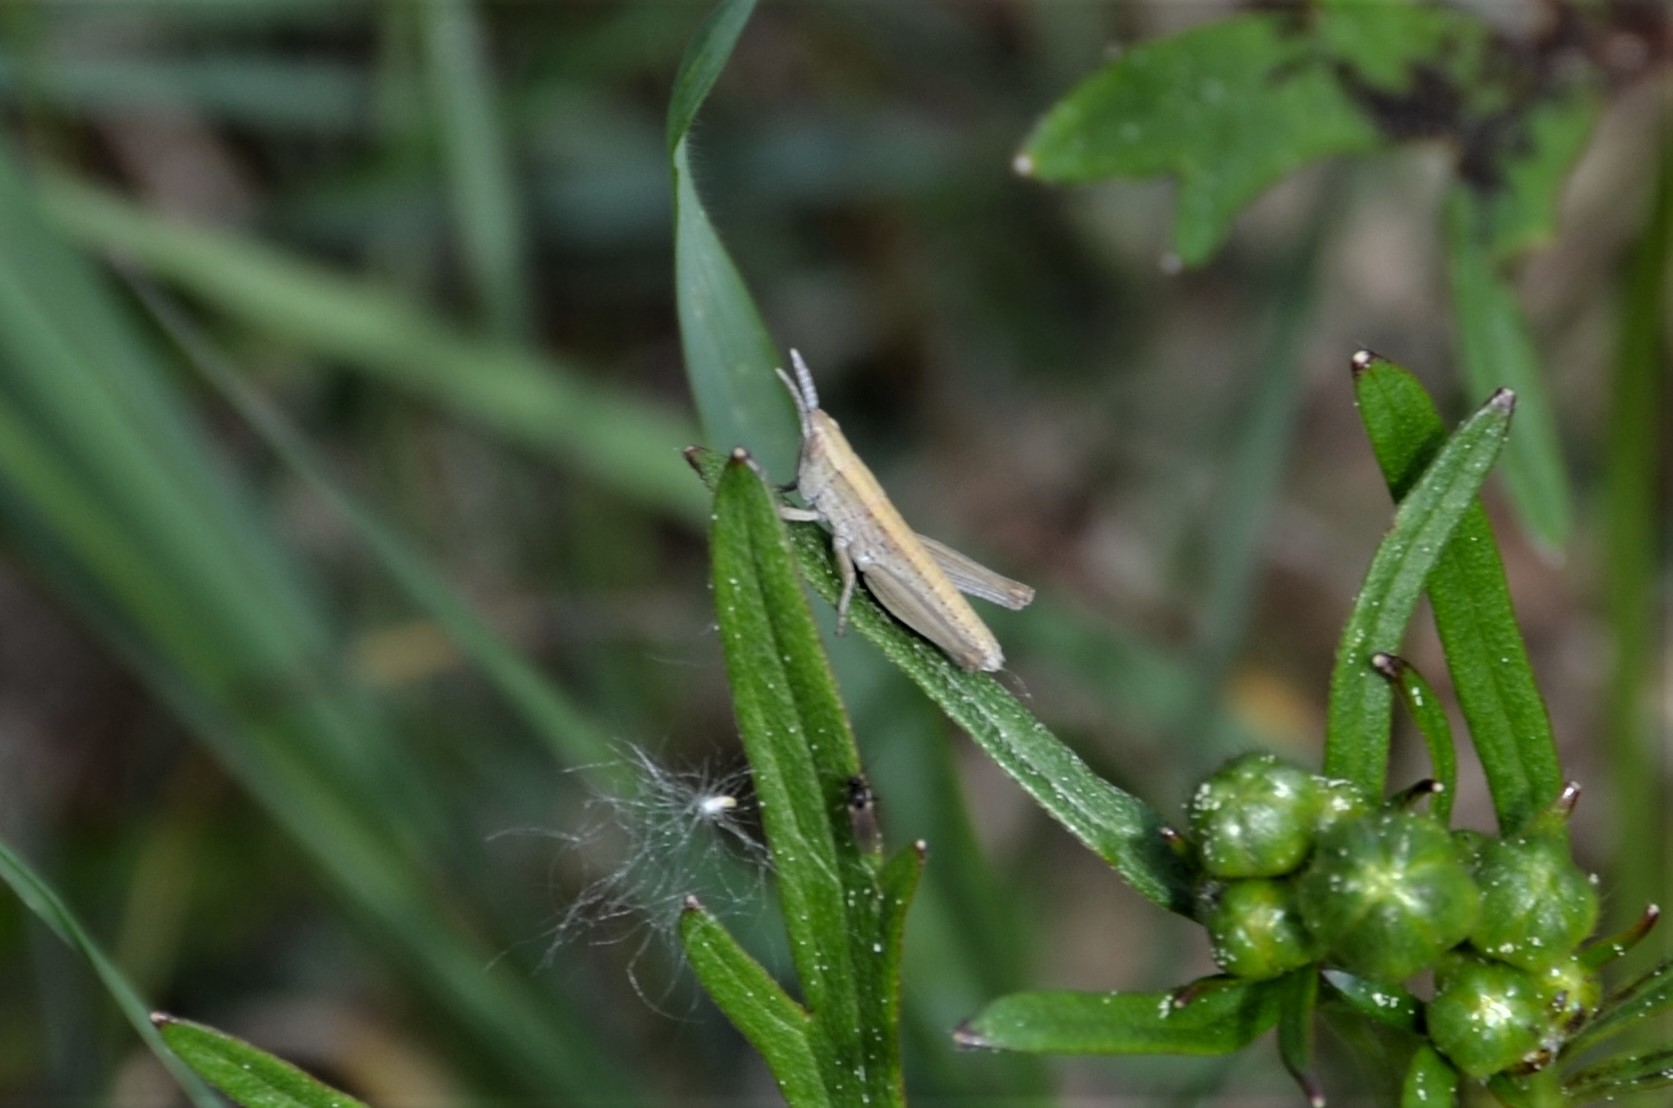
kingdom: Animalia
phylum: Arthropoda
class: Insecta
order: Orthoptera
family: Acrididae
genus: Euthystira
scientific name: Euthystira brachyptera
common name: Small gold grasshopper
